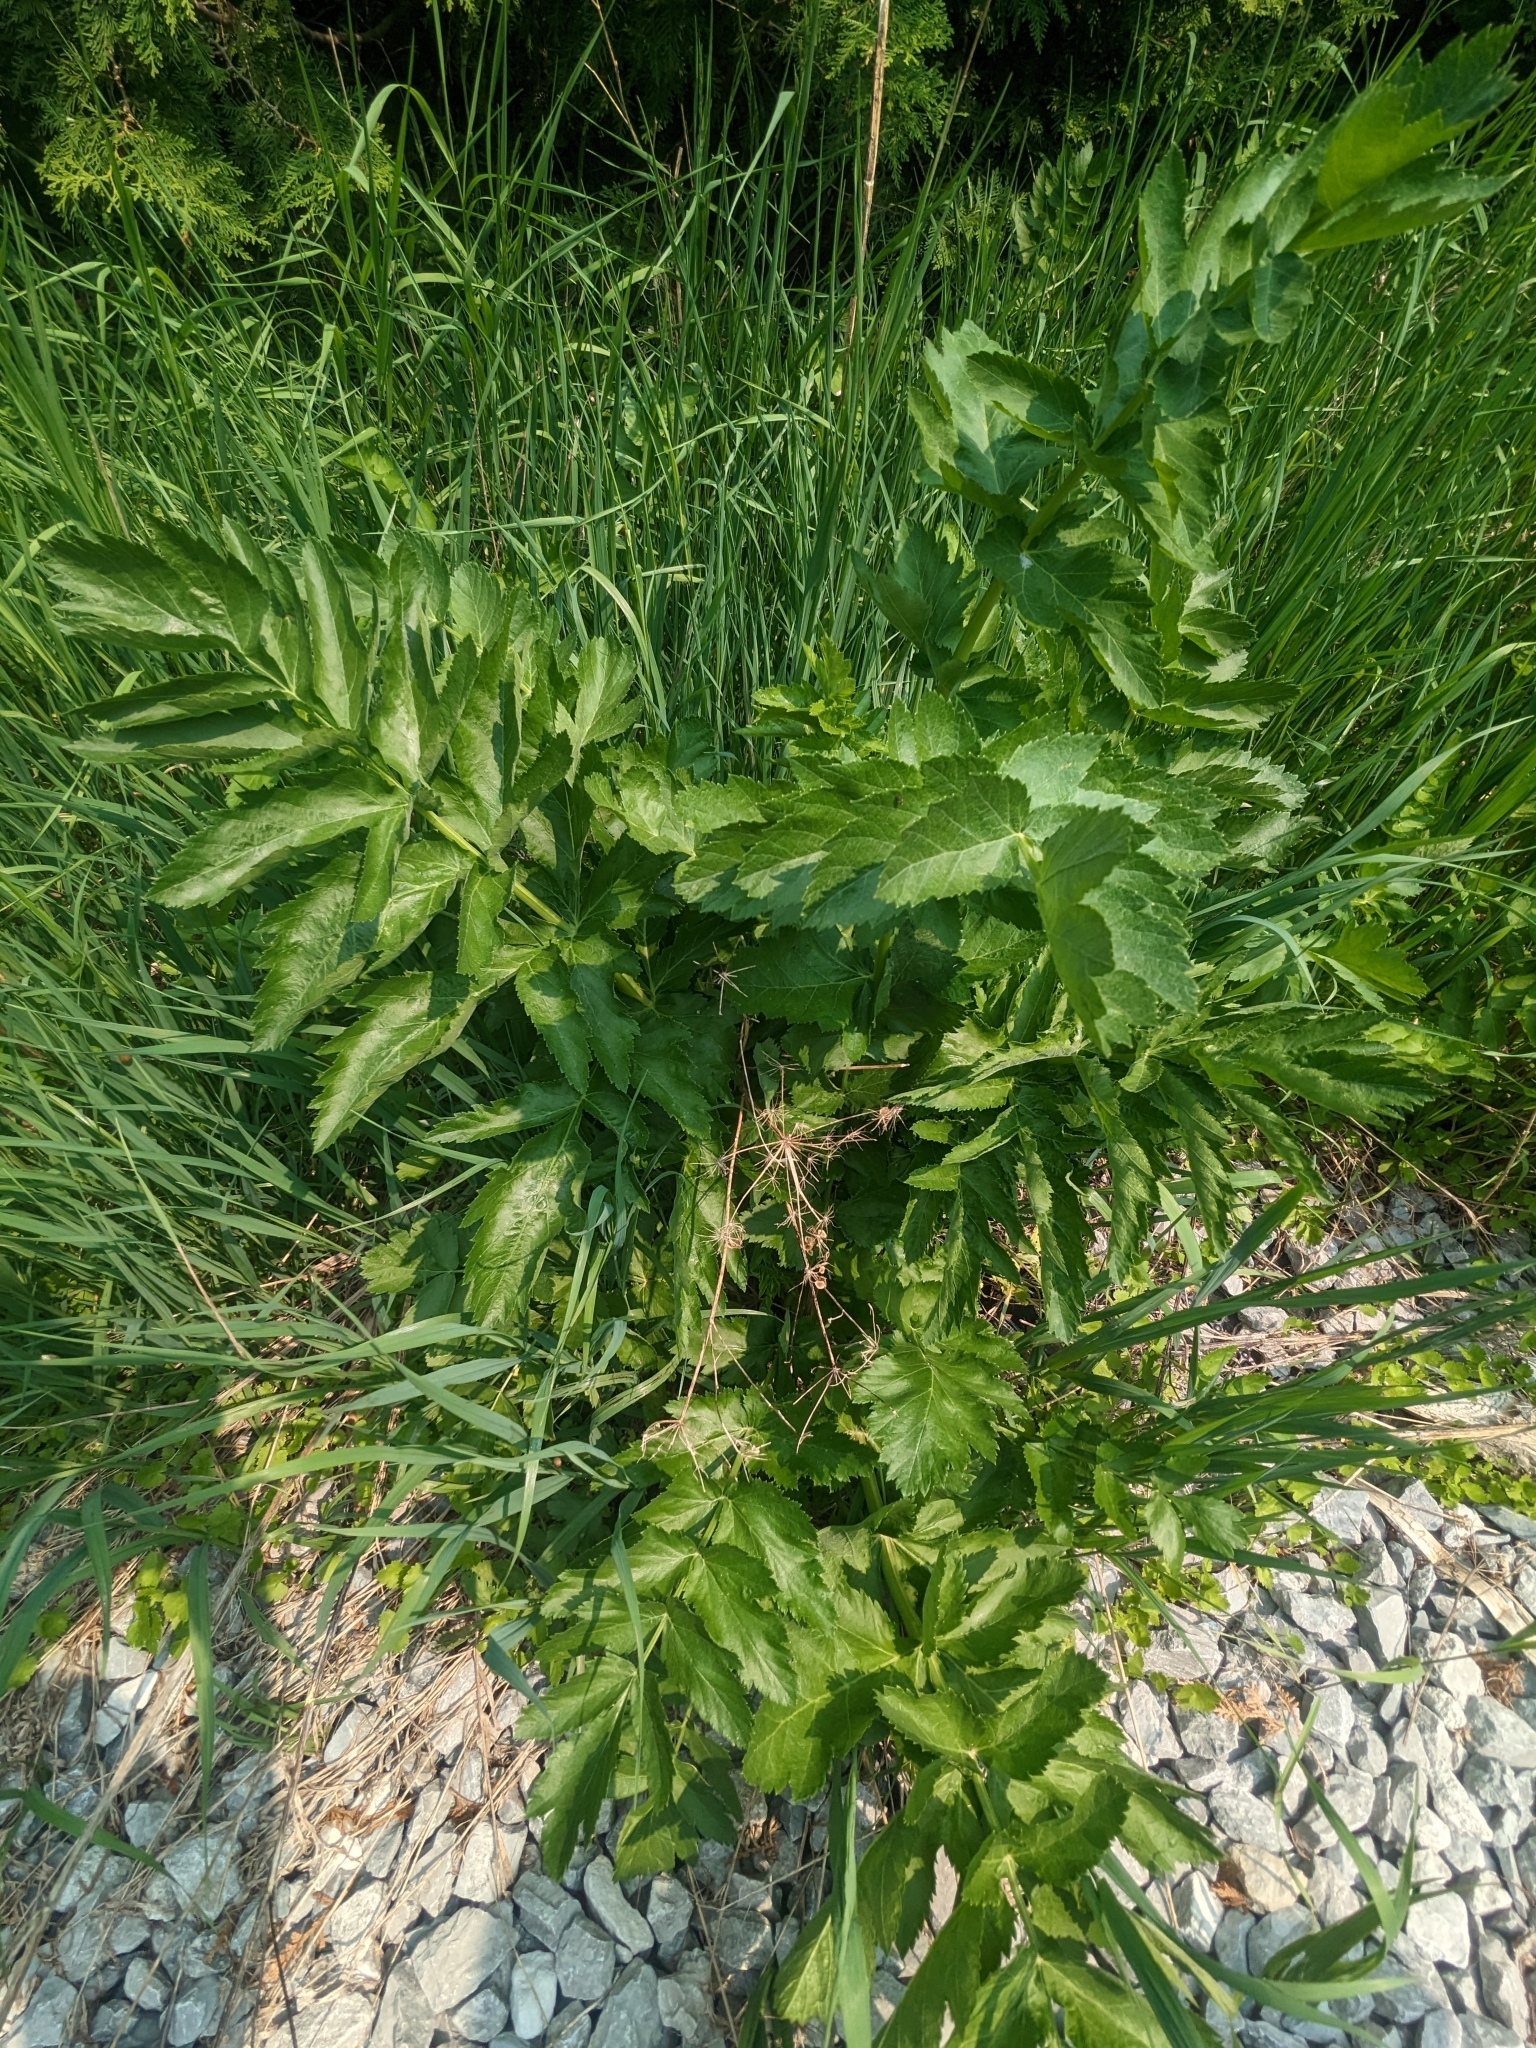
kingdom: Plantae
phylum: Tracheophyta
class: Magnoliopsida
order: Apiales
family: Apiaceae
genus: Pastinaca
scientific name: Pastinaca sativa
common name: Wild parsnip
